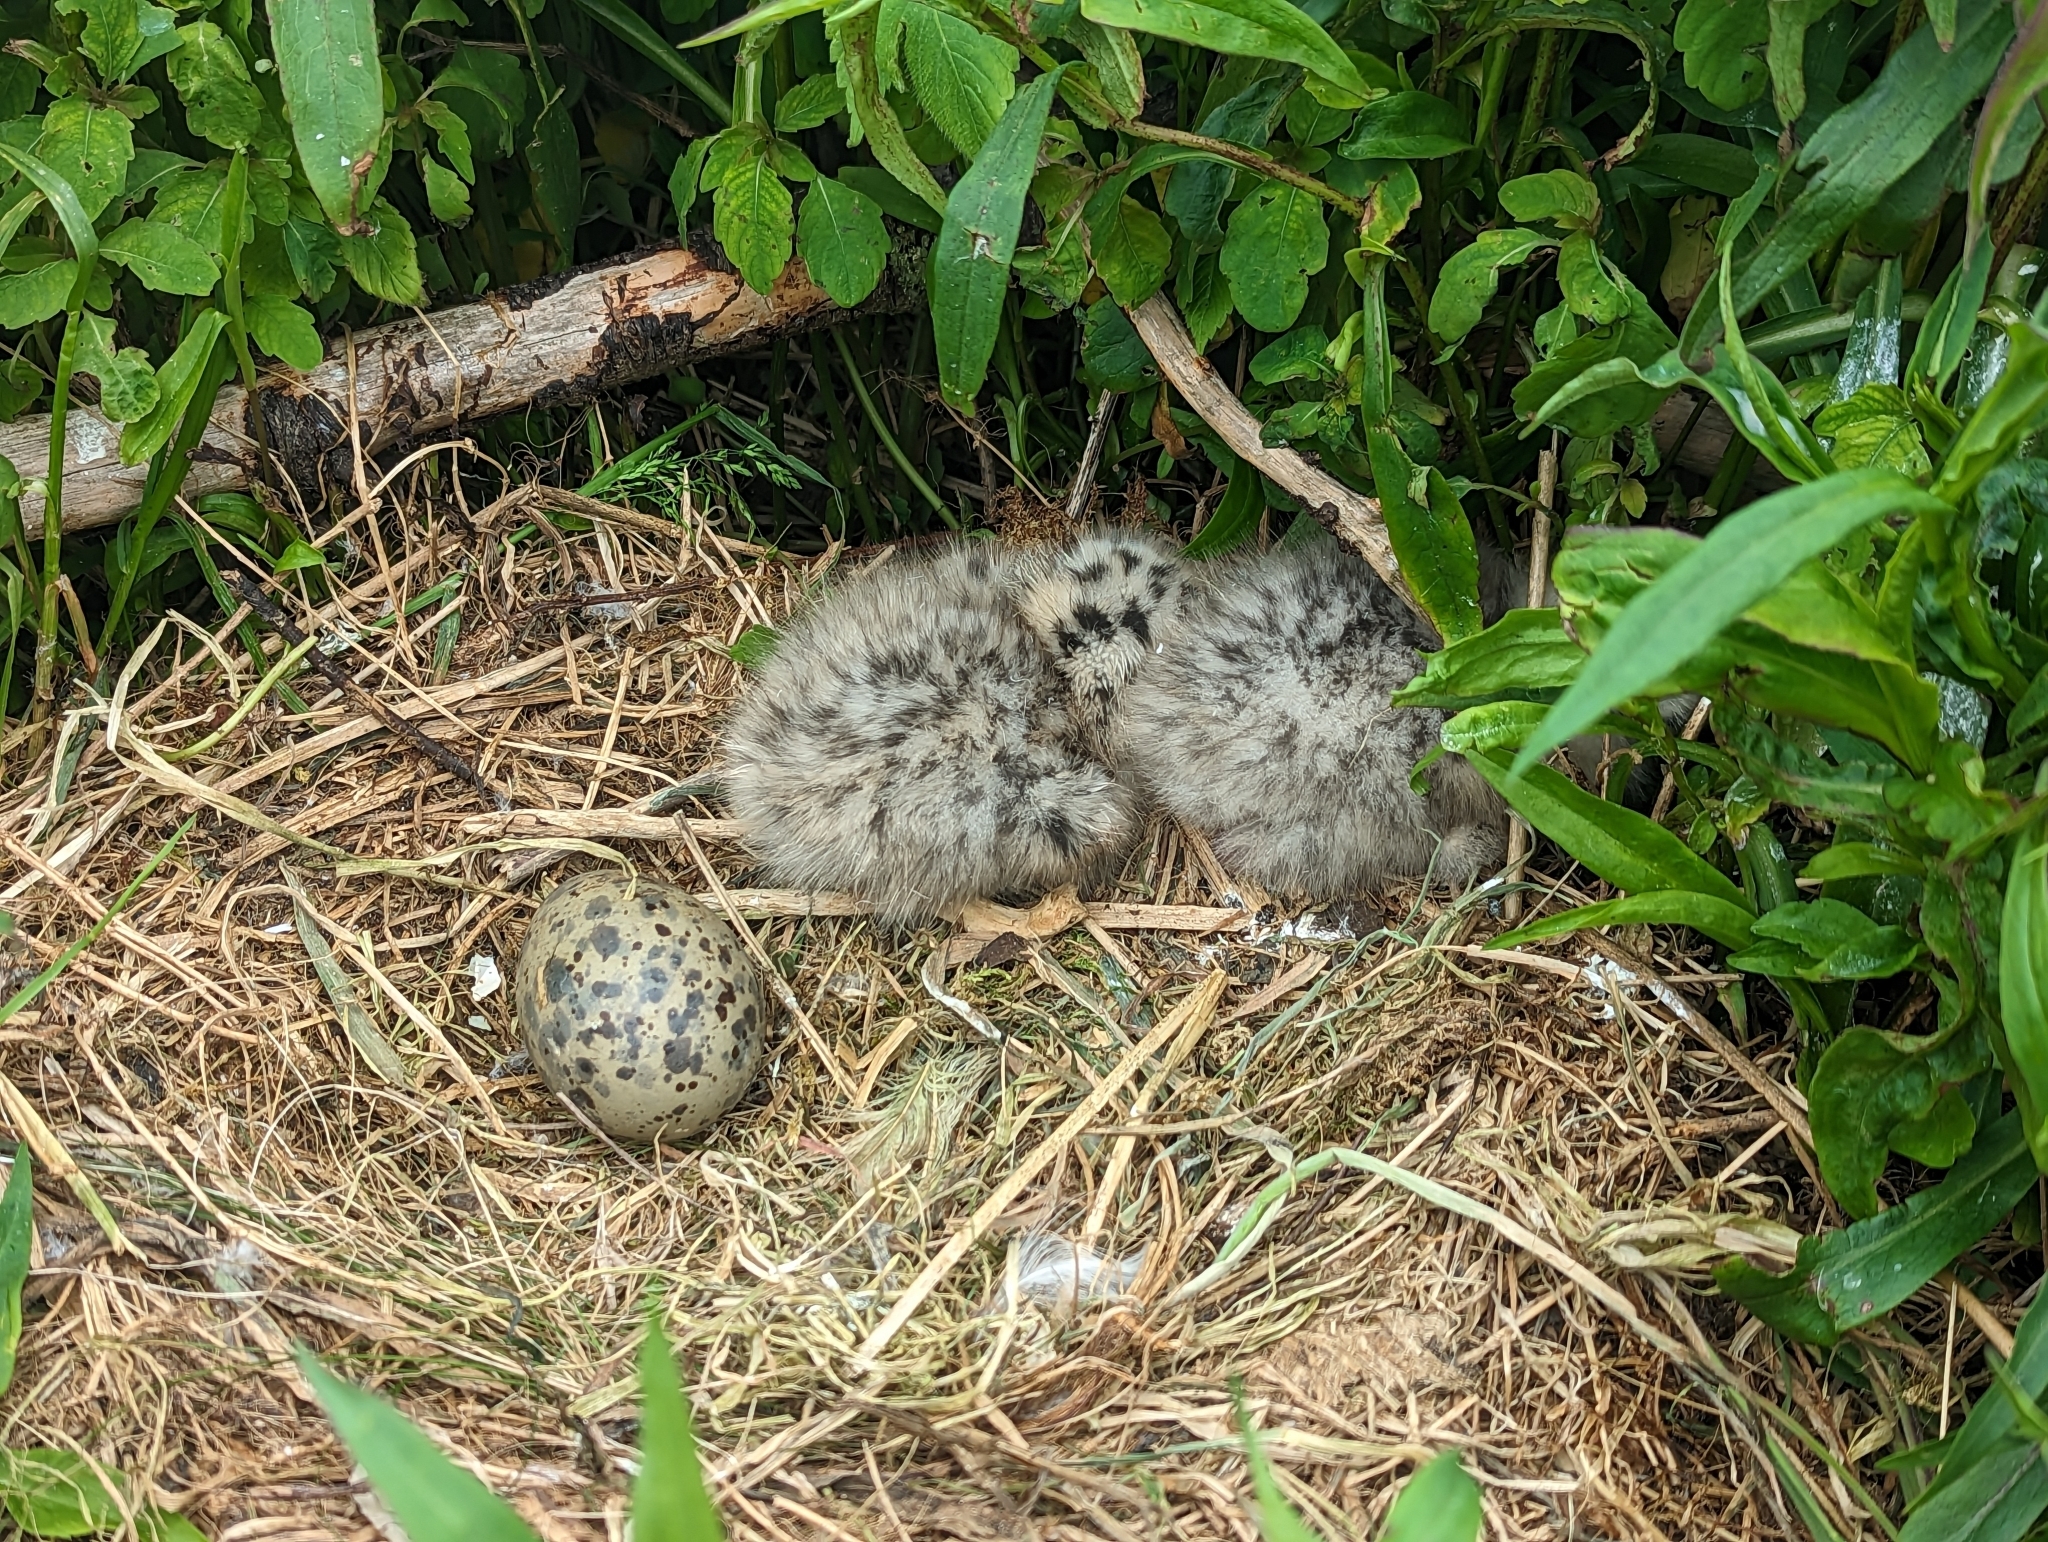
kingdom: Animalia
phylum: Chordata
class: Aves
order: Charadriiformes
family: Laridae
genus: Larus
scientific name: Larus argentatus
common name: Herring gull
